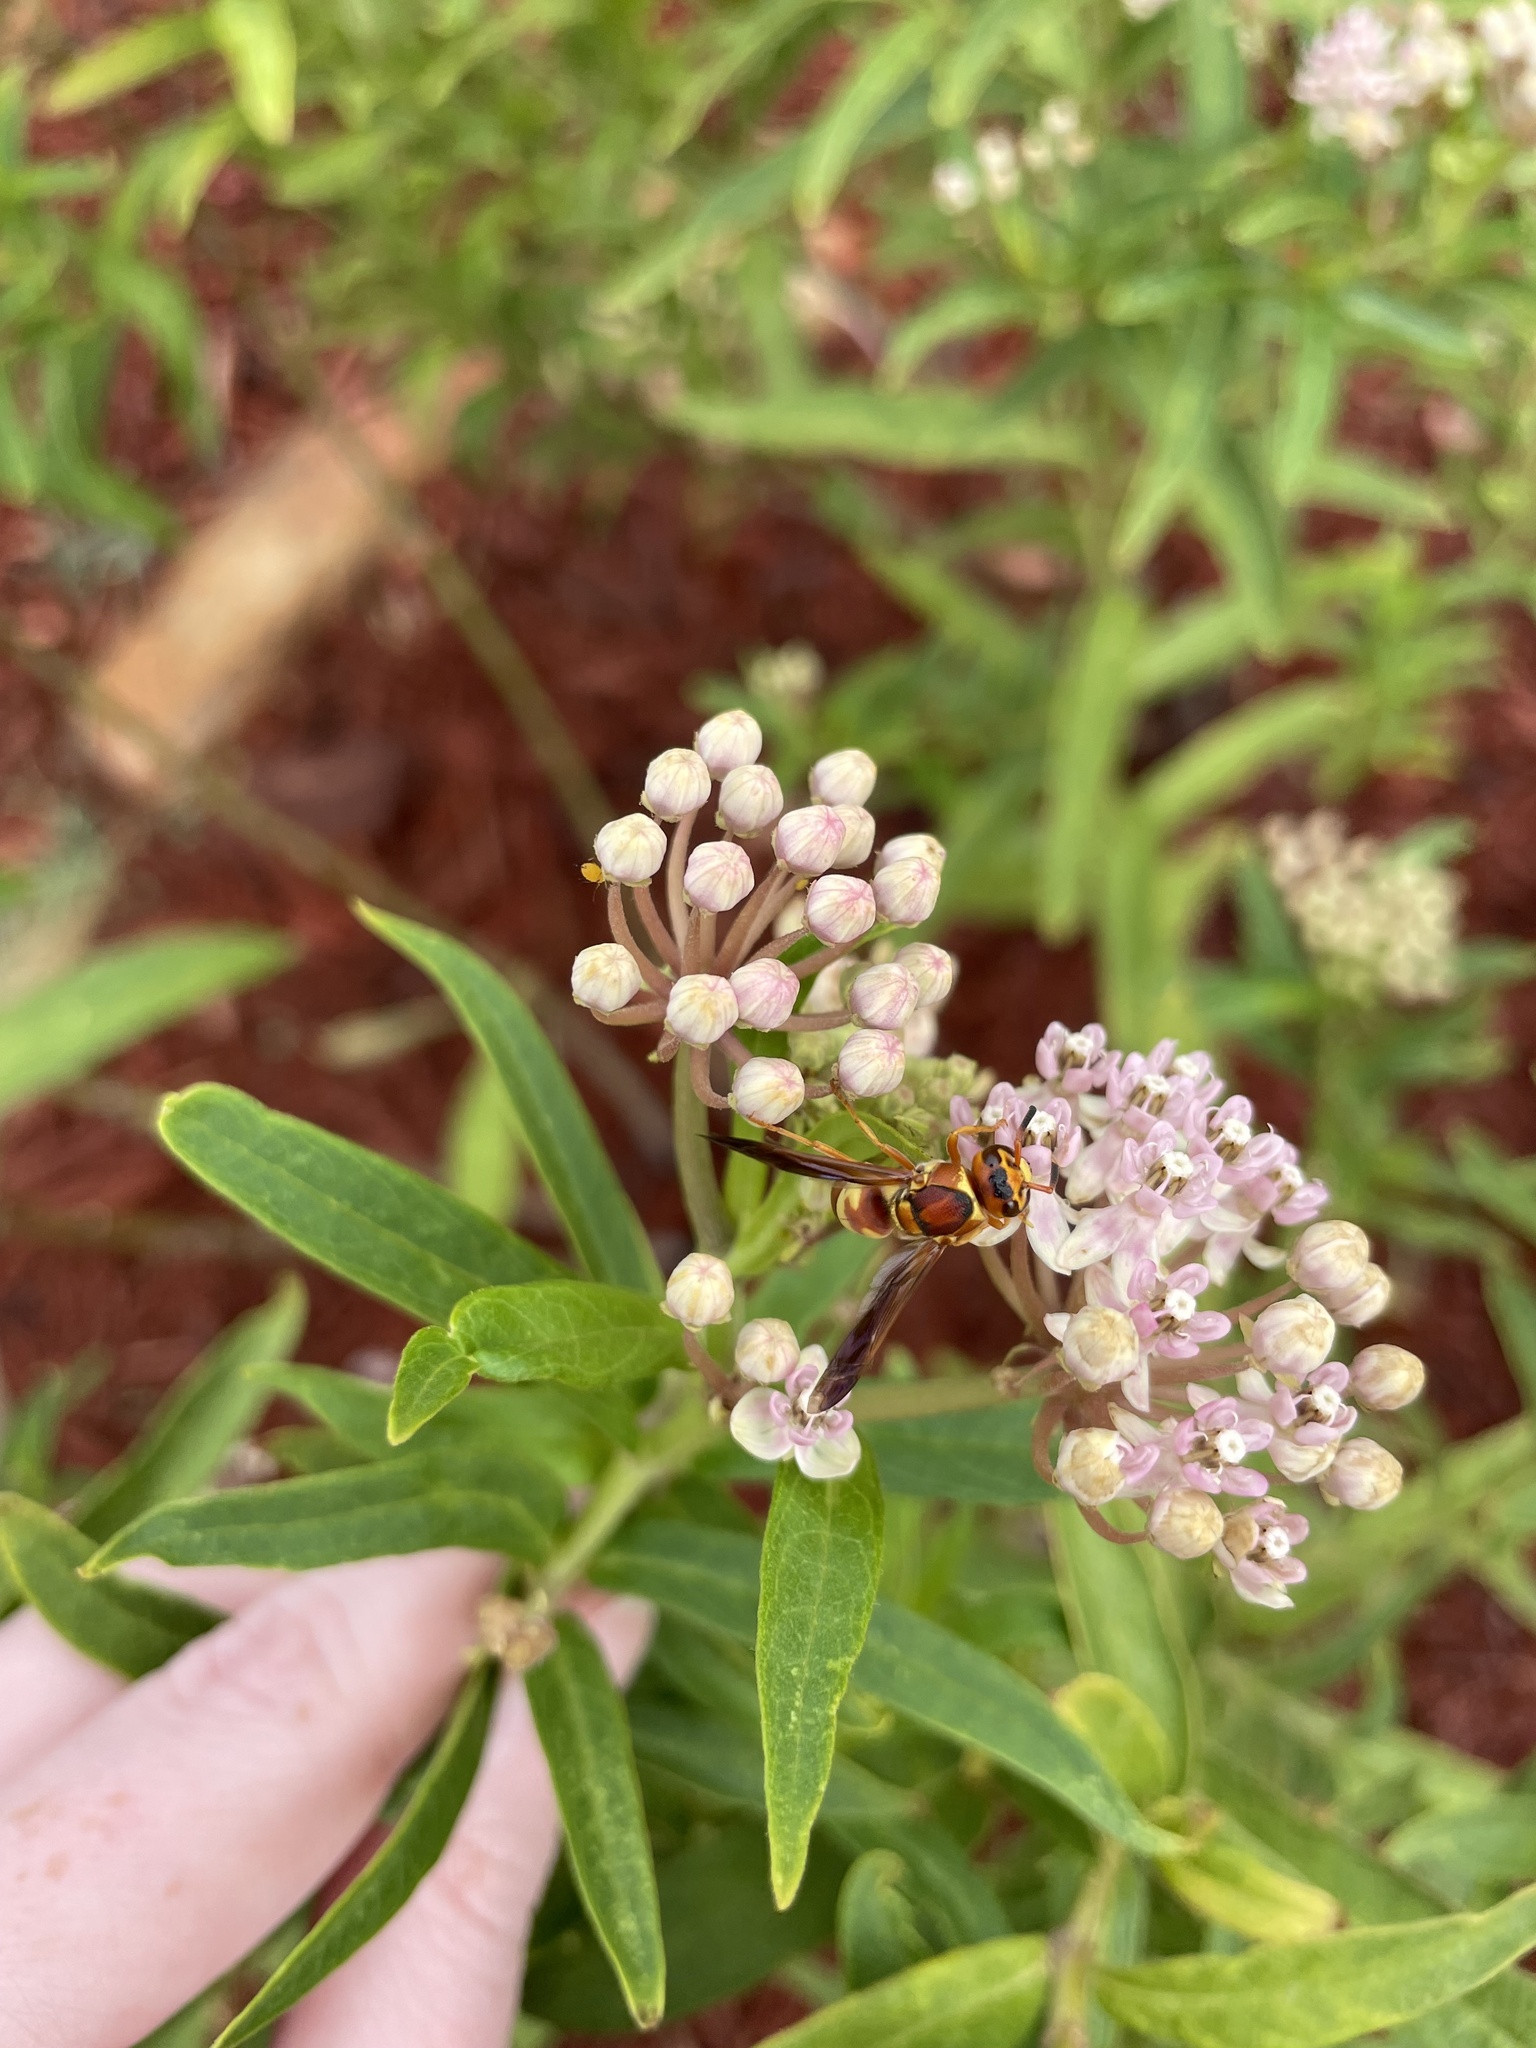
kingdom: Animalia
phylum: Arthropoda
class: Insecta
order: Hymenoptera
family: Eumenidae
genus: Euodynerus
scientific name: Euodynerus
